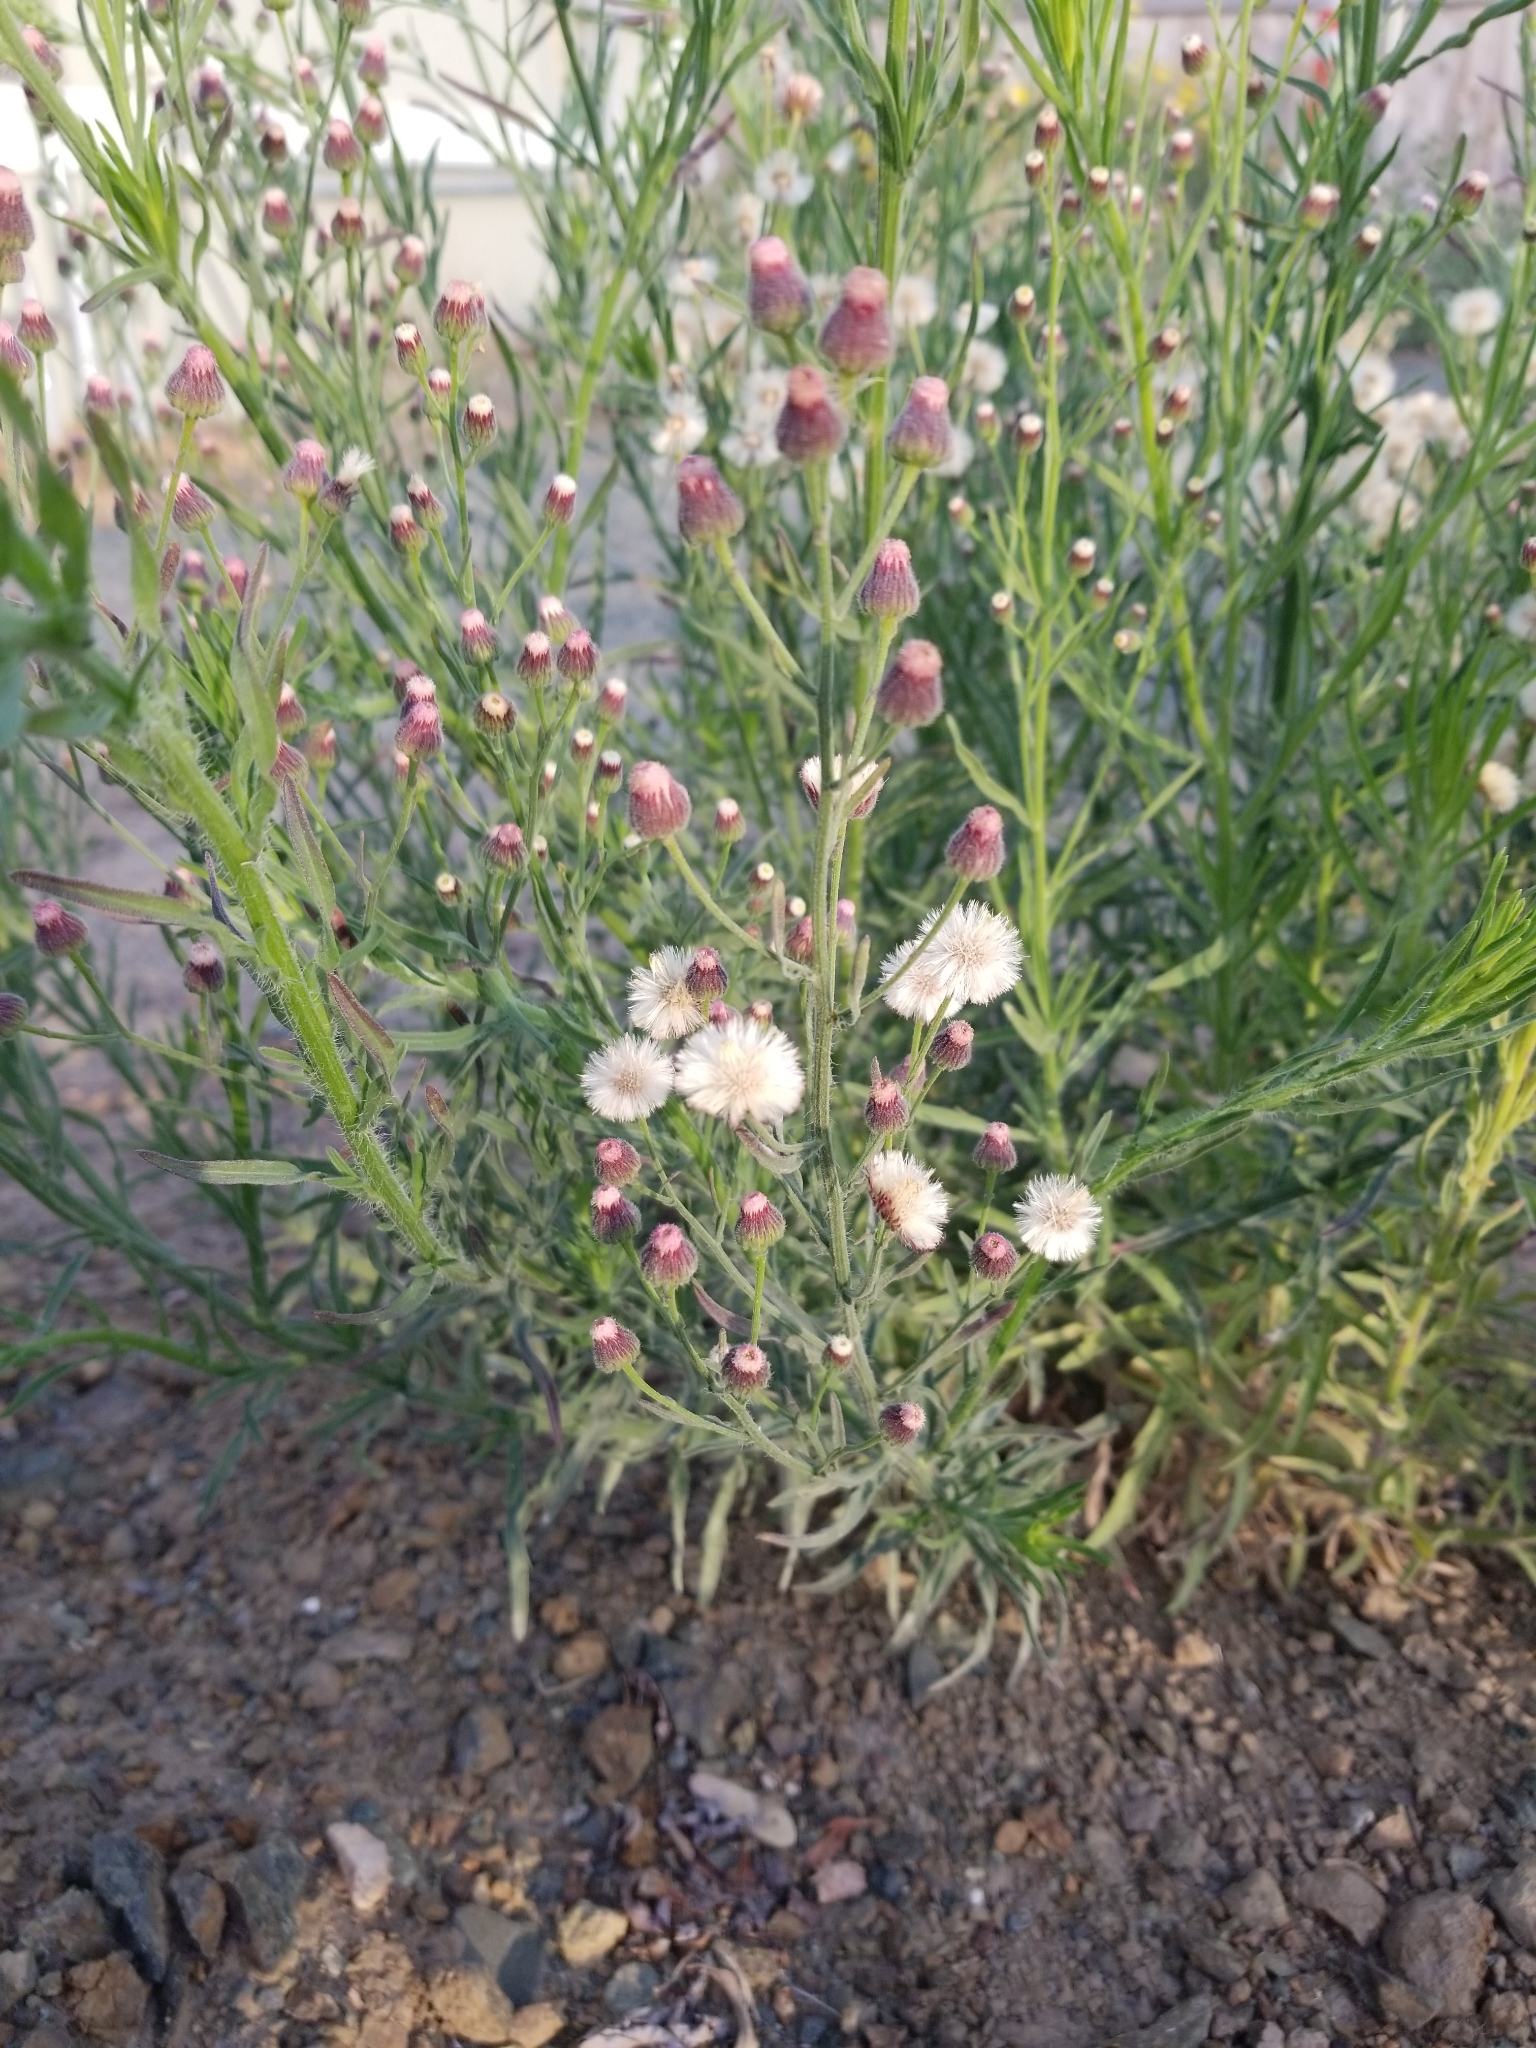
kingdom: Plantae
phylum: Tracheophyta
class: Magnoliopsida
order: Asterales
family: Asteraceae
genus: Erigeron
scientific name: Erigeron bonariensis
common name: Argentine fleabane
